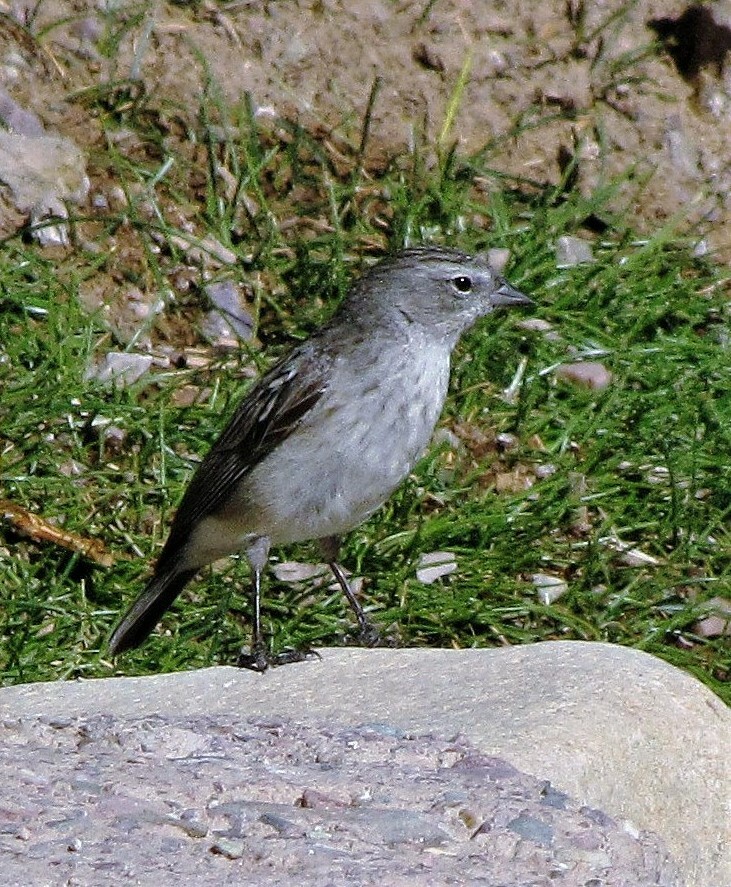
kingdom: Animalia
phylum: Chordata
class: Aves
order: Passeriformes
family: Thraupidae
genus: Geospizopsis
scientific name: Geospizopsis plebejus
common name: Ash-breasted sierra-finch
